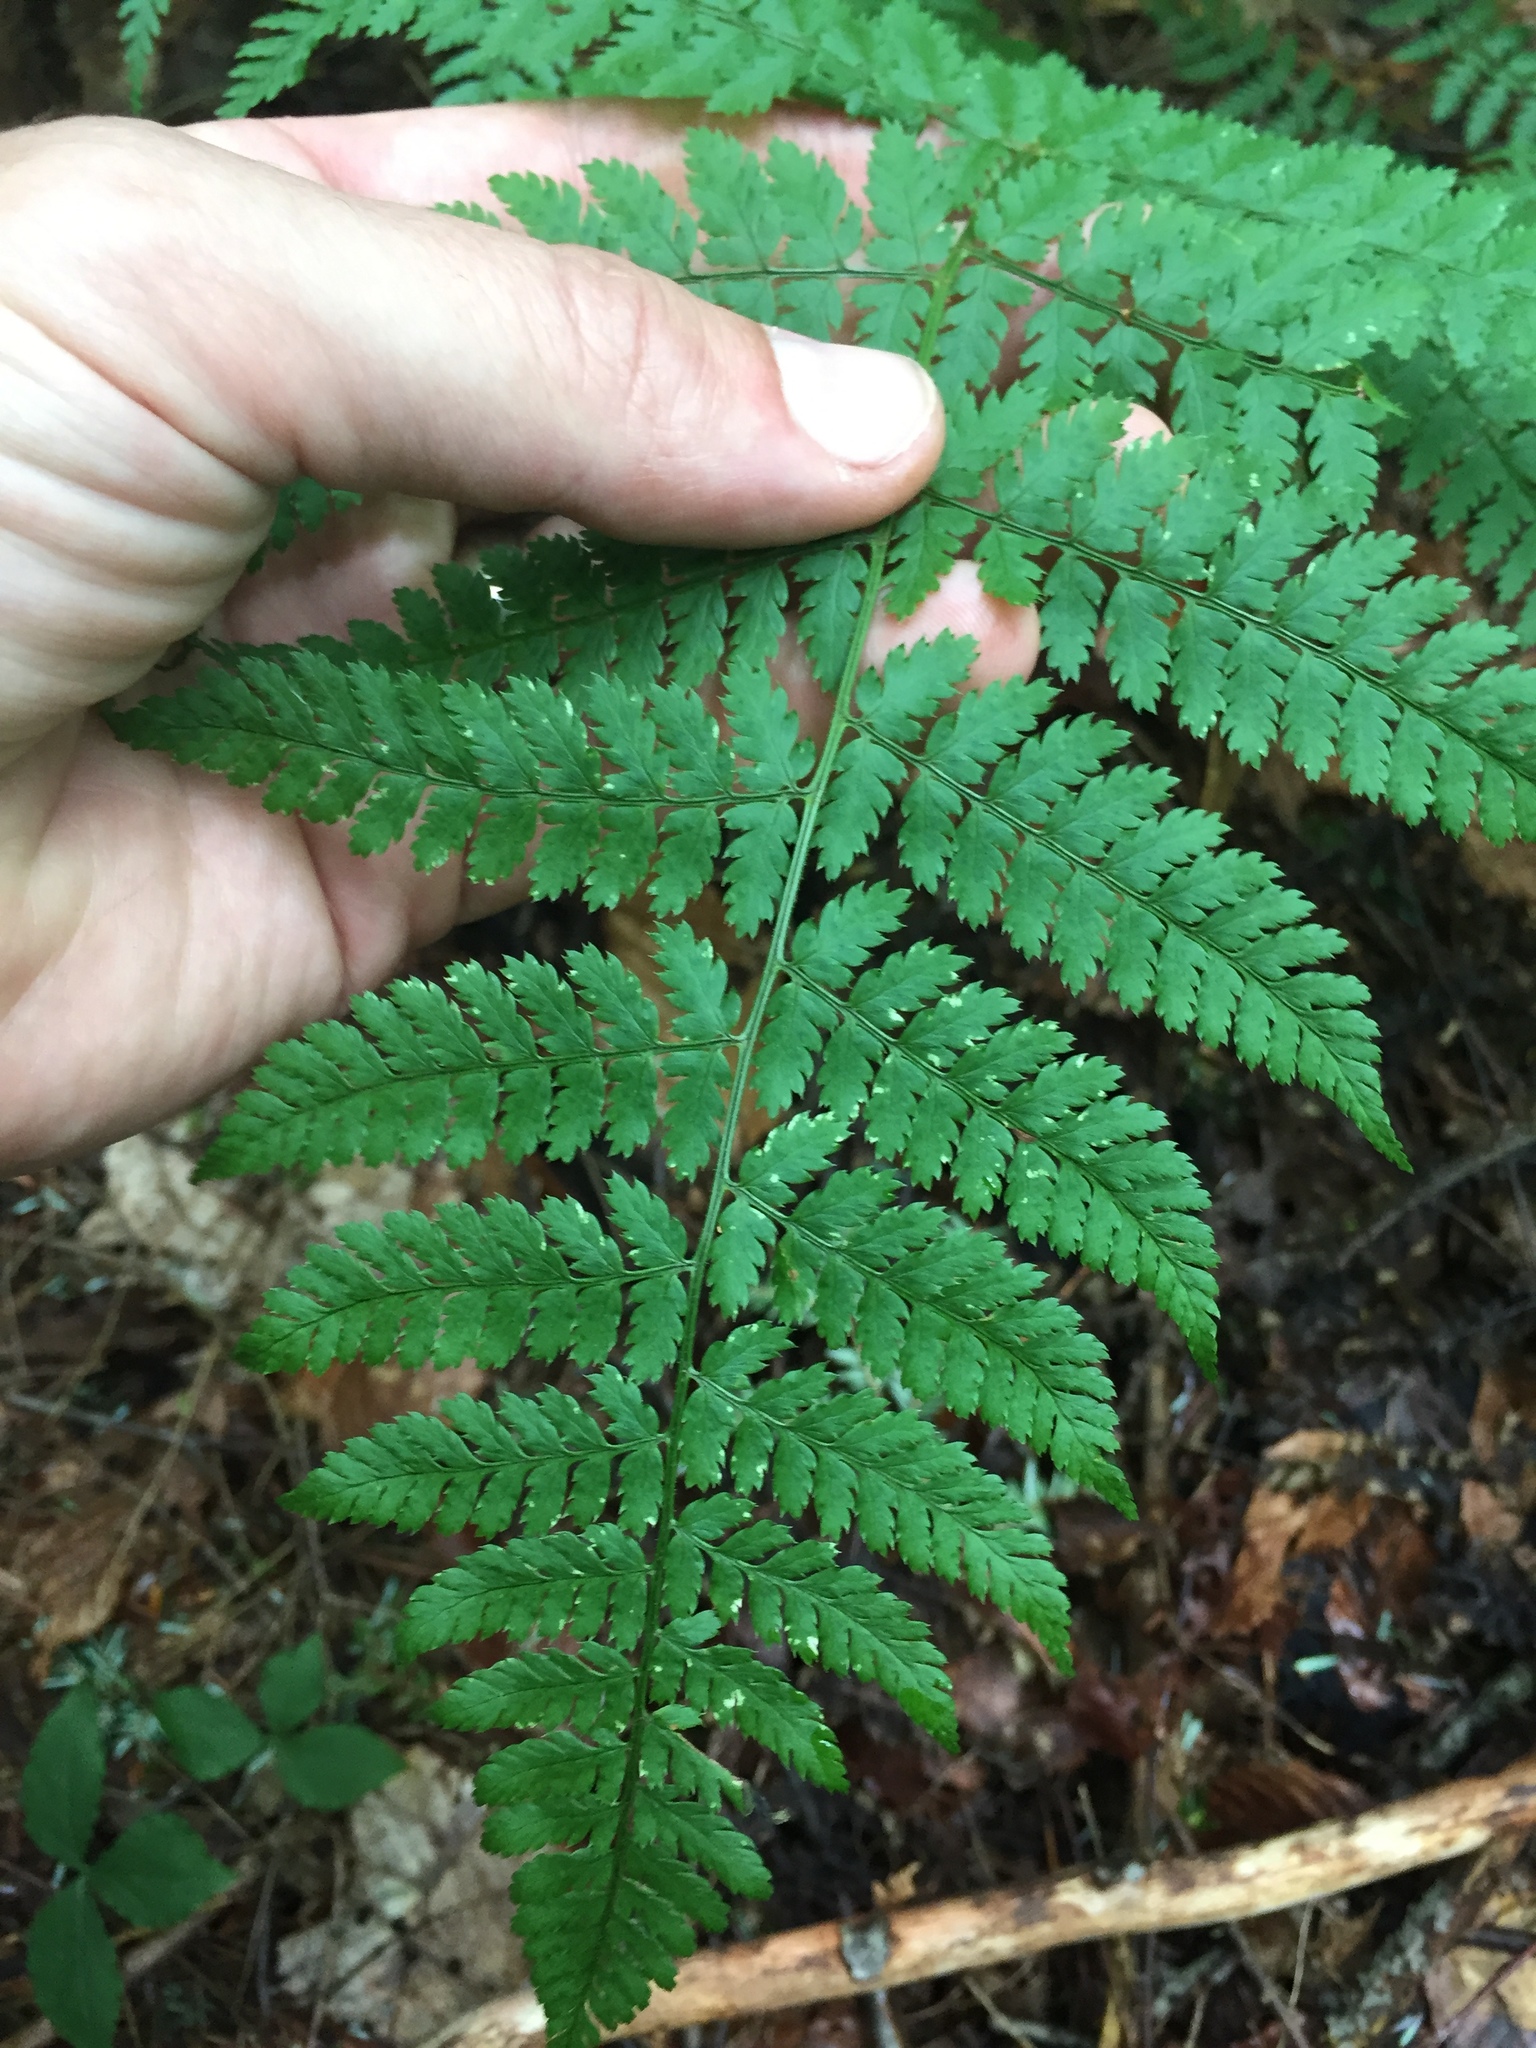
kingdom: Plantae
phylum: Tracheophyta
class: Polypodiopsida
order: Polypodiales
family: Dryopteridaceae
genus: Dryopteris
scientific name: Dryopteris intermedia
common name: Evergreen wood fern
